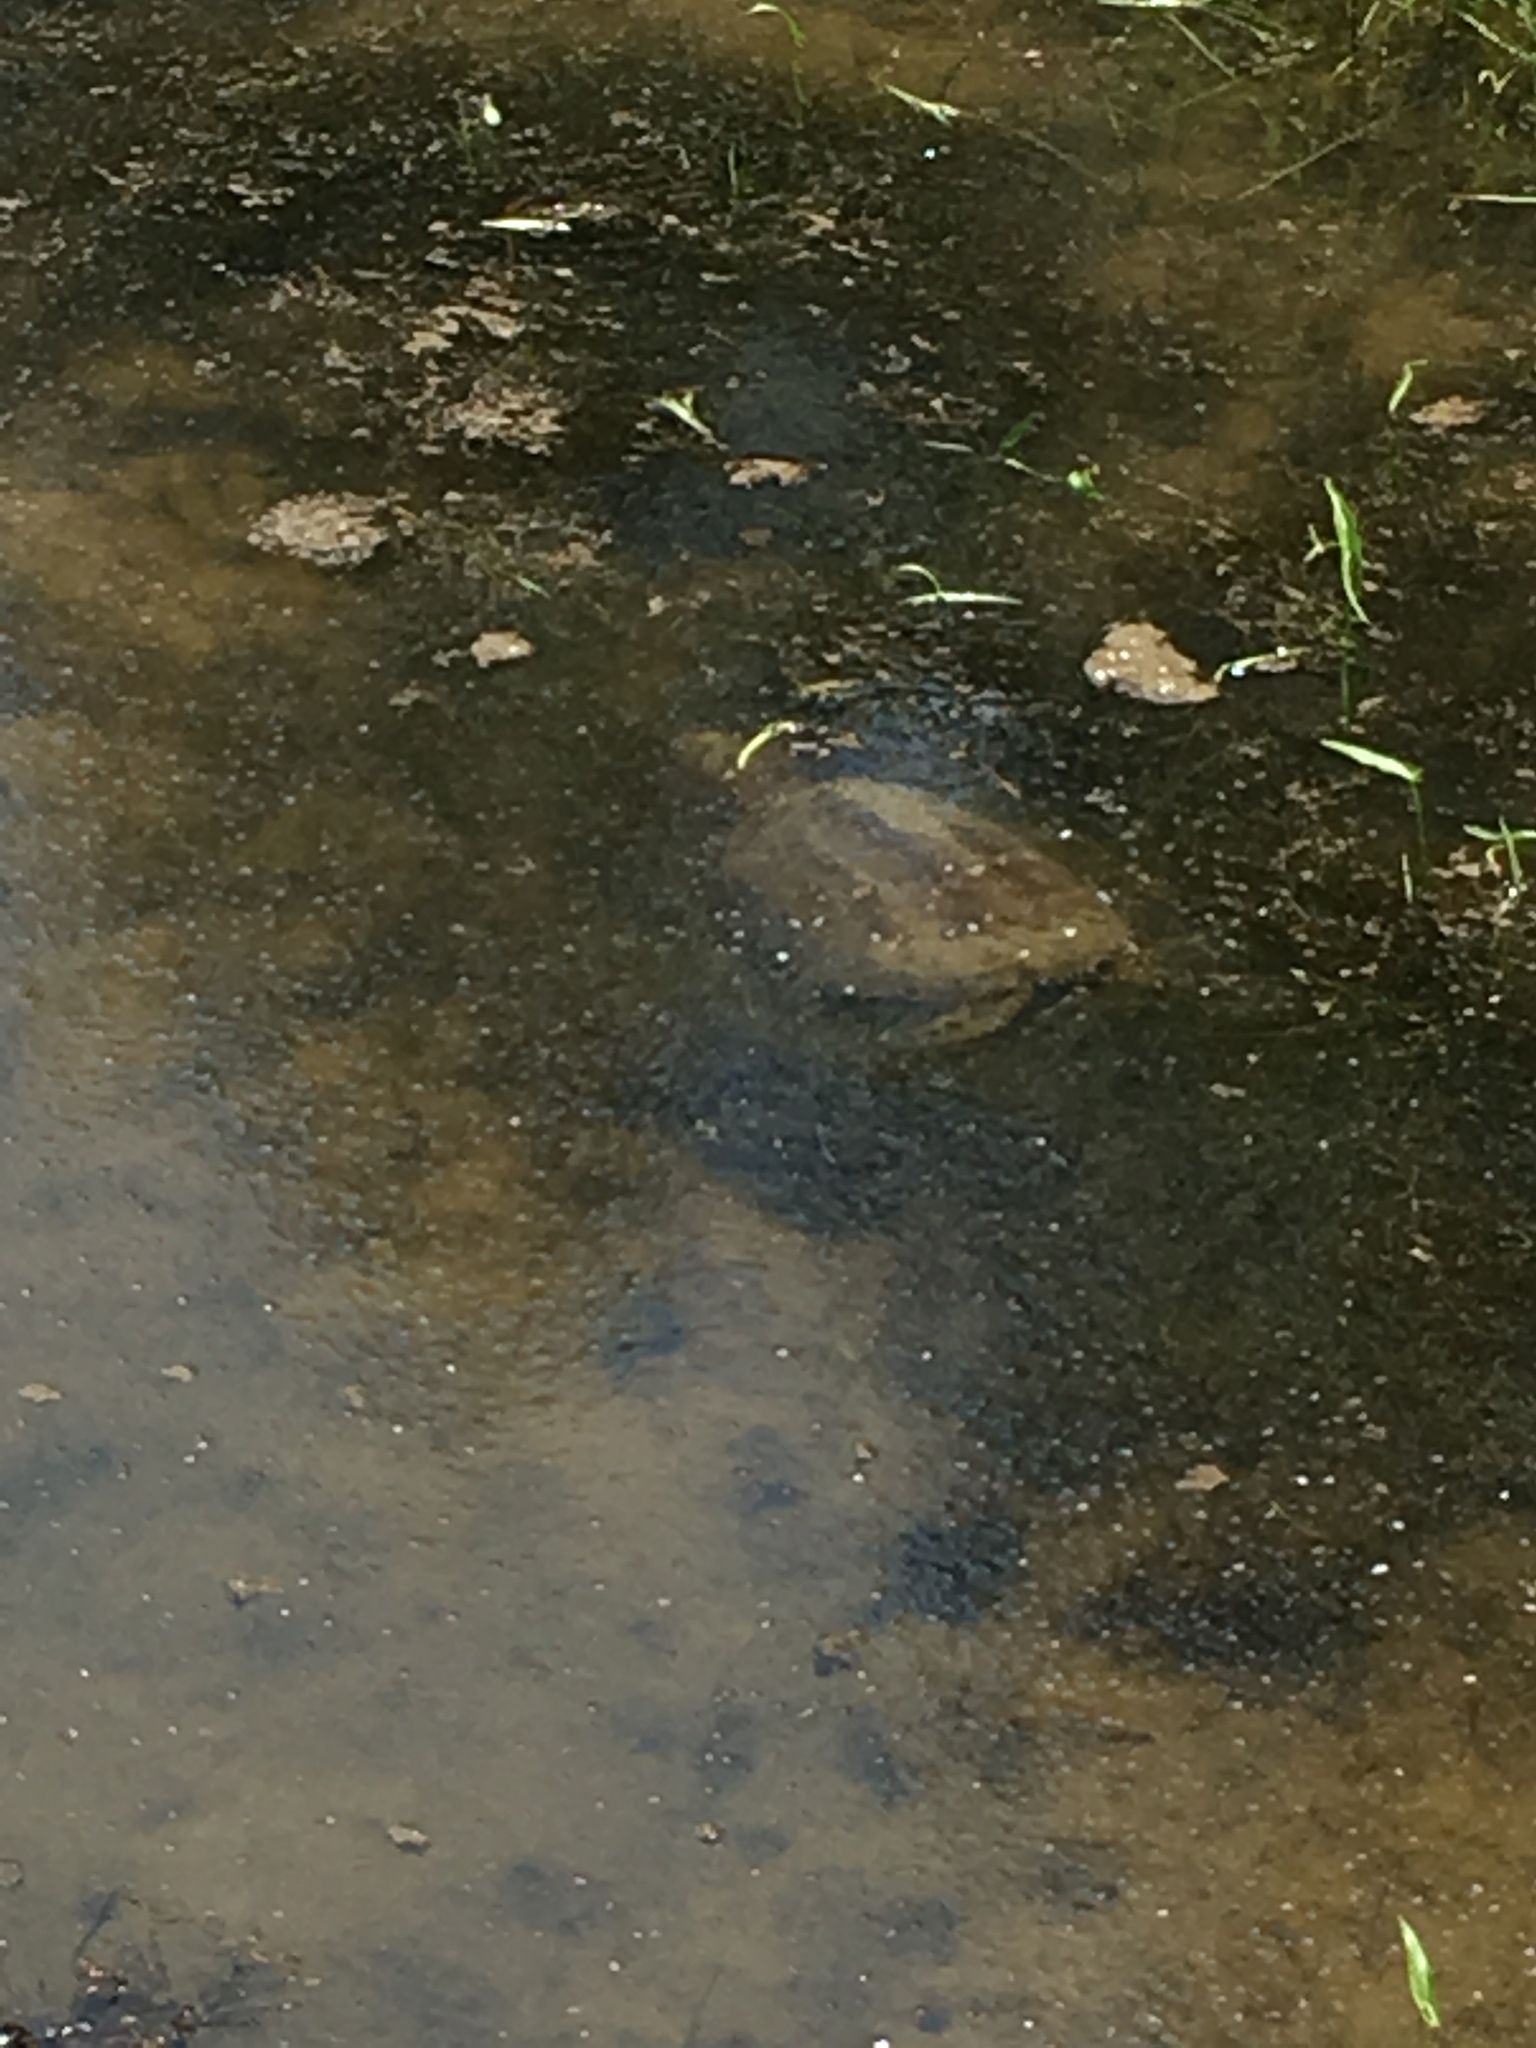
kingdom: Animalia
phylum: Chordata
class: Testudines
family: Chelydridae
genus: Chelydra
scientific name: Chelydra serpentina
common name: Common snapping turtle
